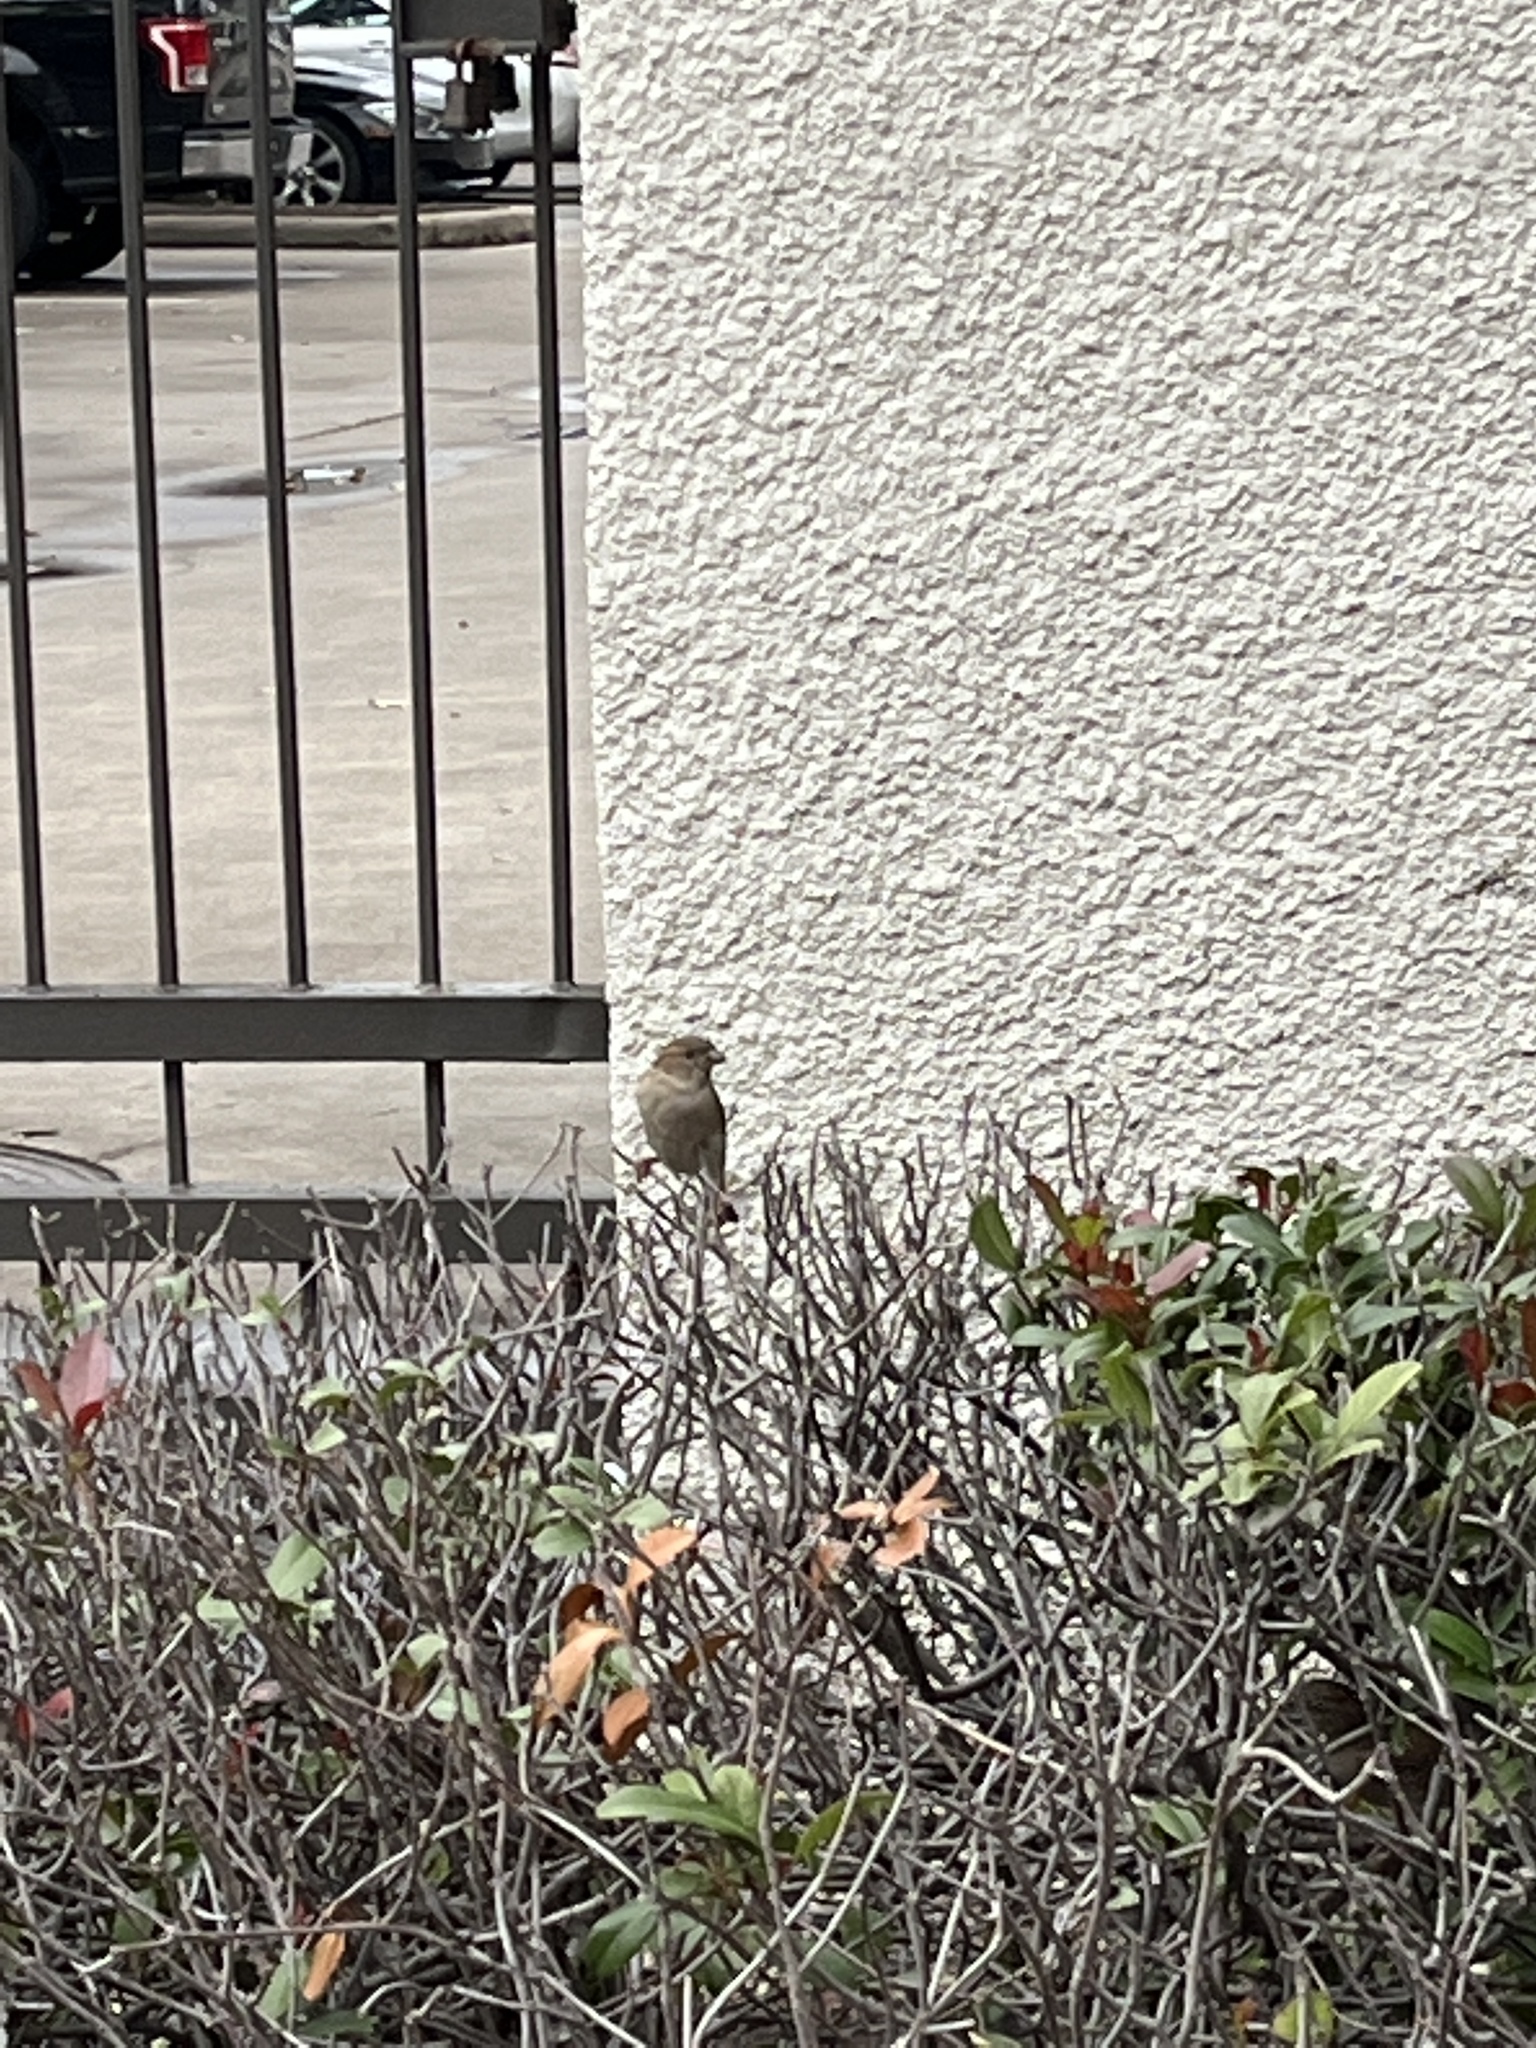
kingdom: Animalia
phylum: Chordata
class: Aves
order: Passeriformes
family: Passeridae
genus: Passer
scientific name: Passer domesticus
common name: House sparrow
